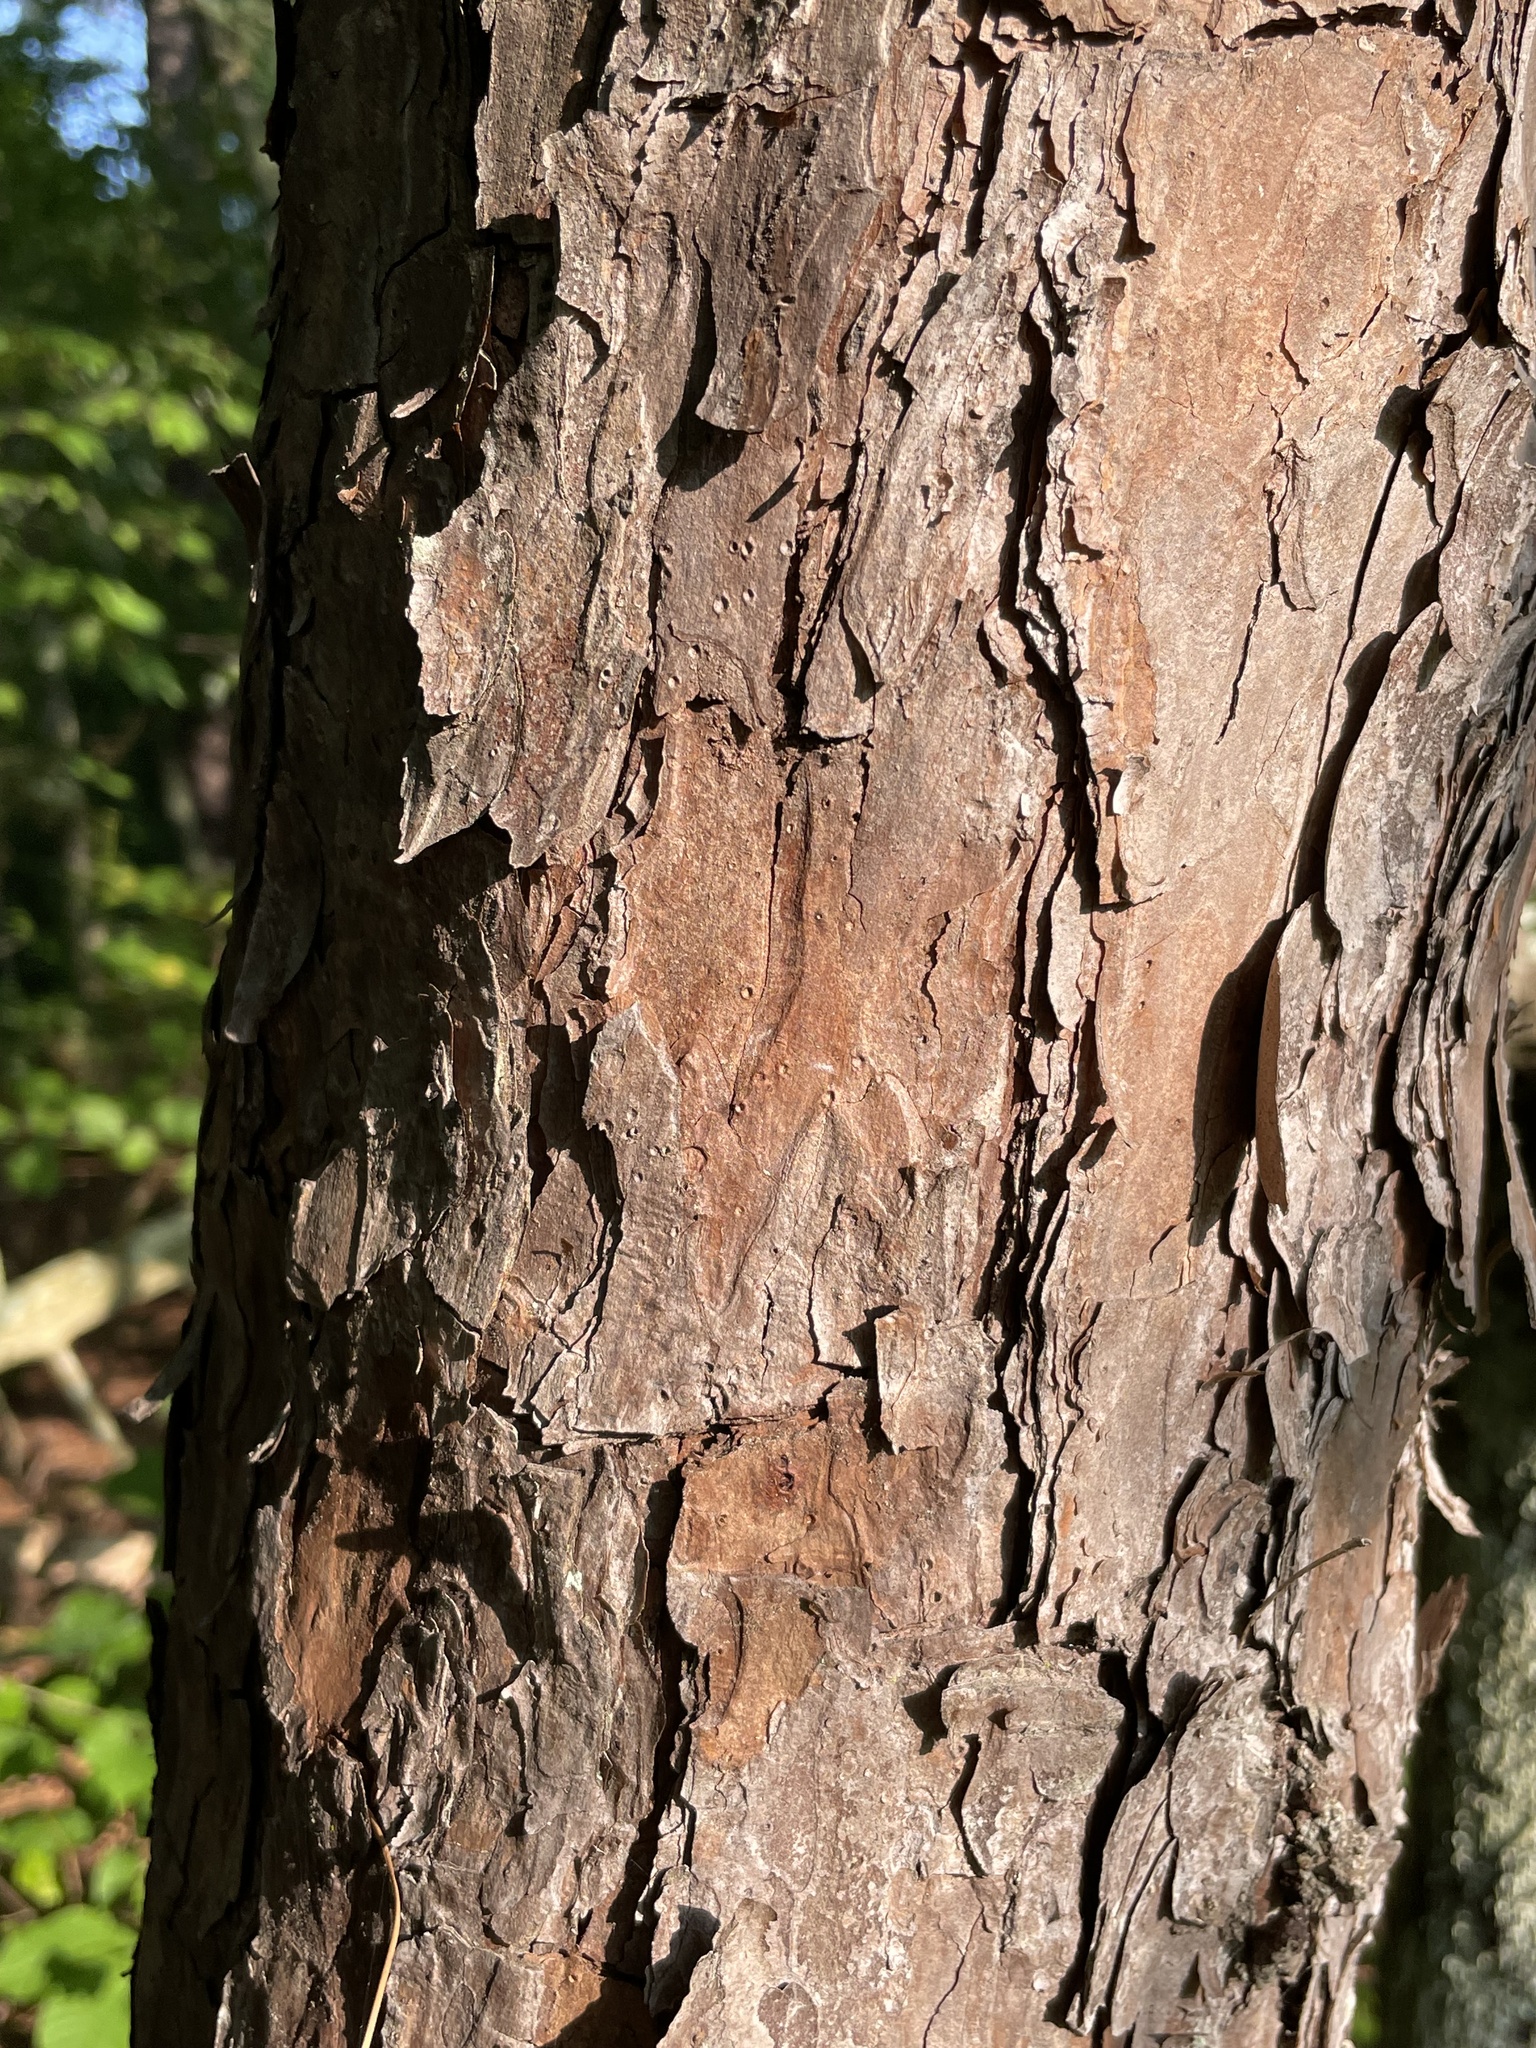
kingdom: Plantae
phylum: Tracheophyta
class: Pinopsida
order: Pinales
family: Pinaceae
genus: Pinus
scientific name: Pinus echinata
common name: Shortleaf pine
